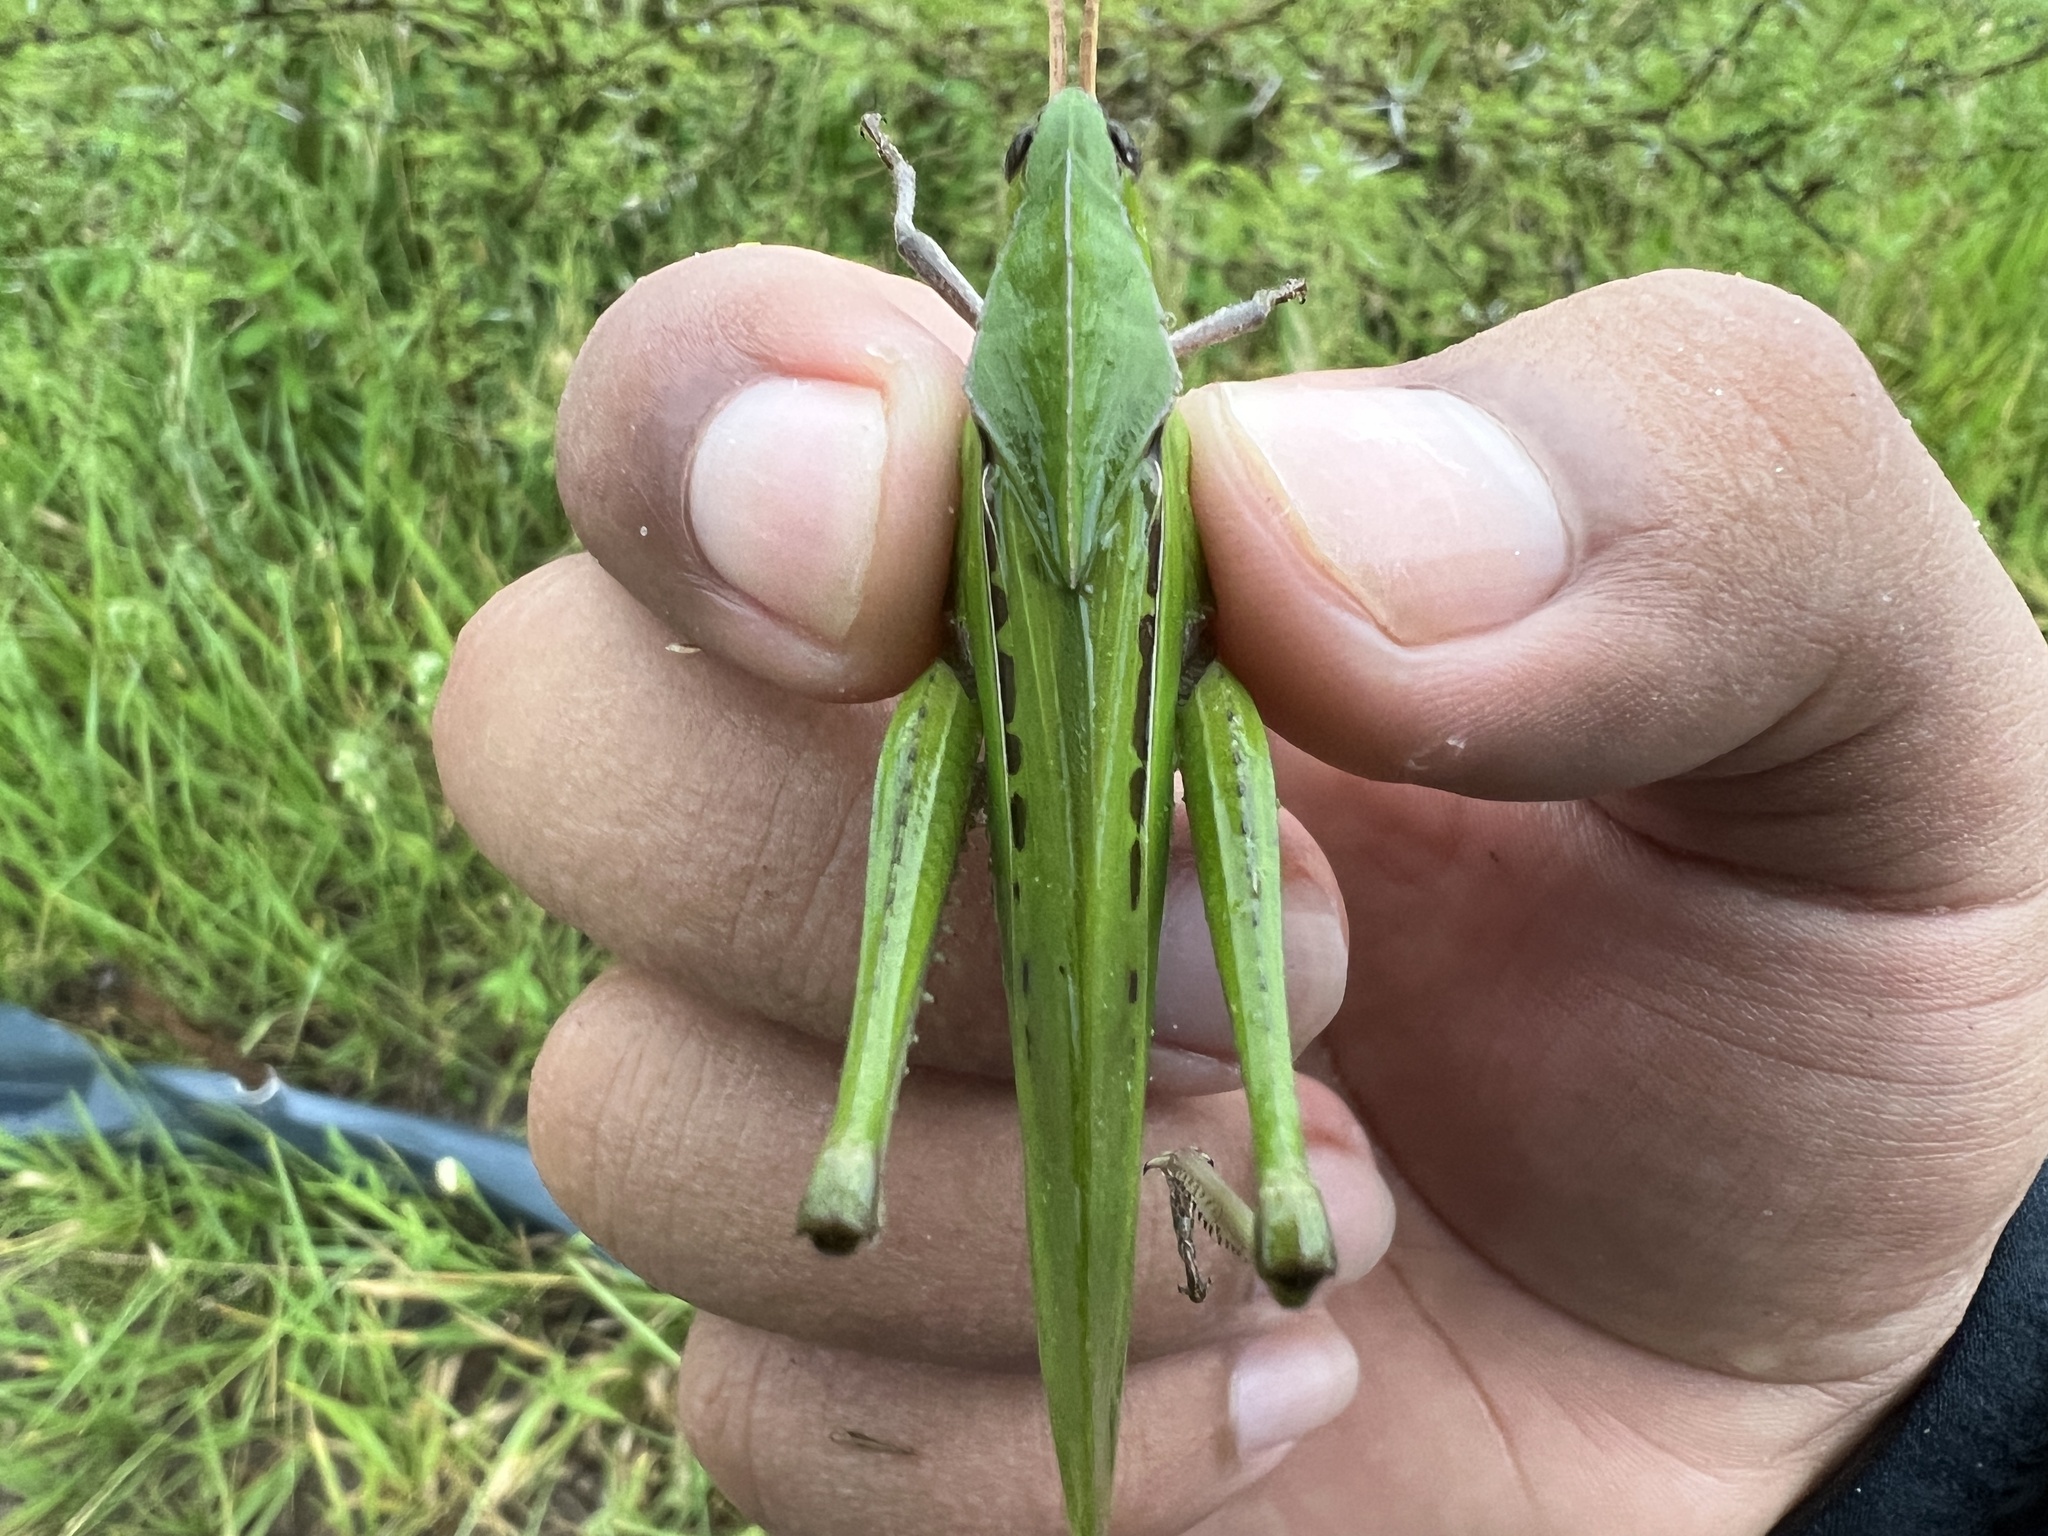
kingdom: Animalia
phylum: Arthropoda
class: Insecta
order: Orthoptera
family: Romaleidae
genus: Xyleus
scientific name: Xyleus laevipes
